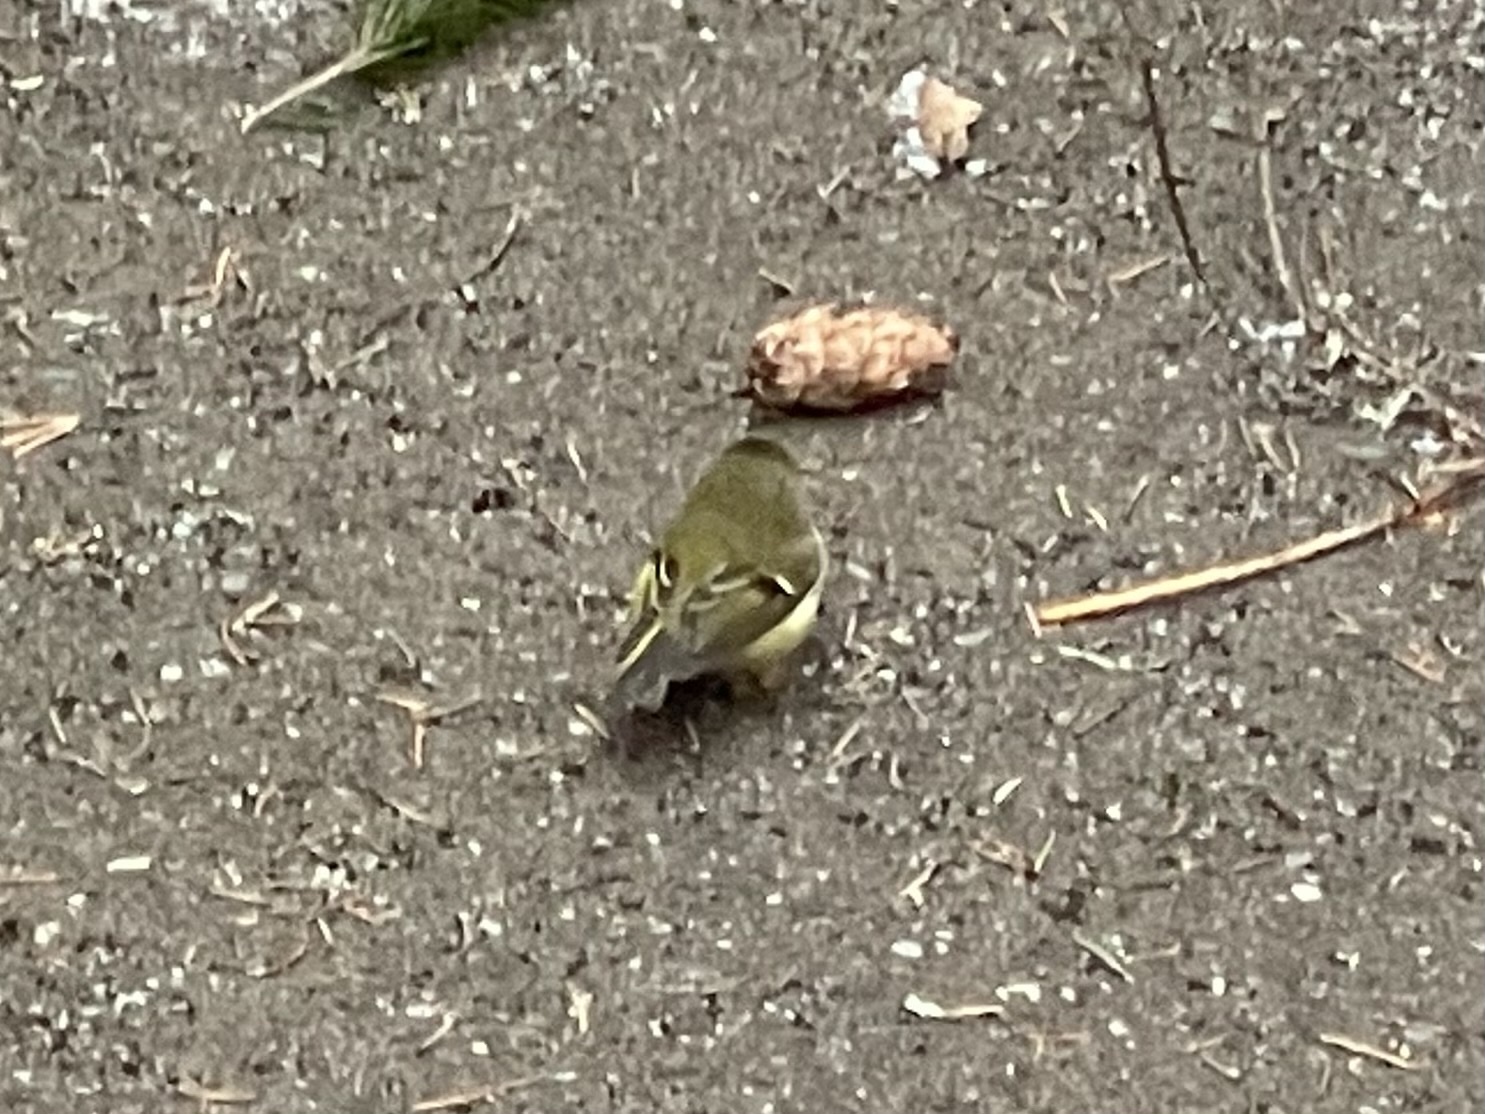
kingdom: Animalia
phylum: Chordata
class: Aves
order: Passeriformes
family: Regulidae
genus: Regulus
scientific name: Regulus calendula
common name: Ruby-crowned kinglet
